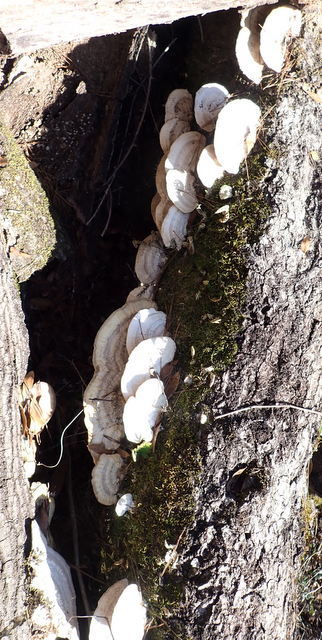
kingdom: Fungi
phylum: Basidiomycota
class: Agaricomycetes
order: Polyporales
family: Polyporaceae
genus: Trametes
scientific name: Trametes lactinea
